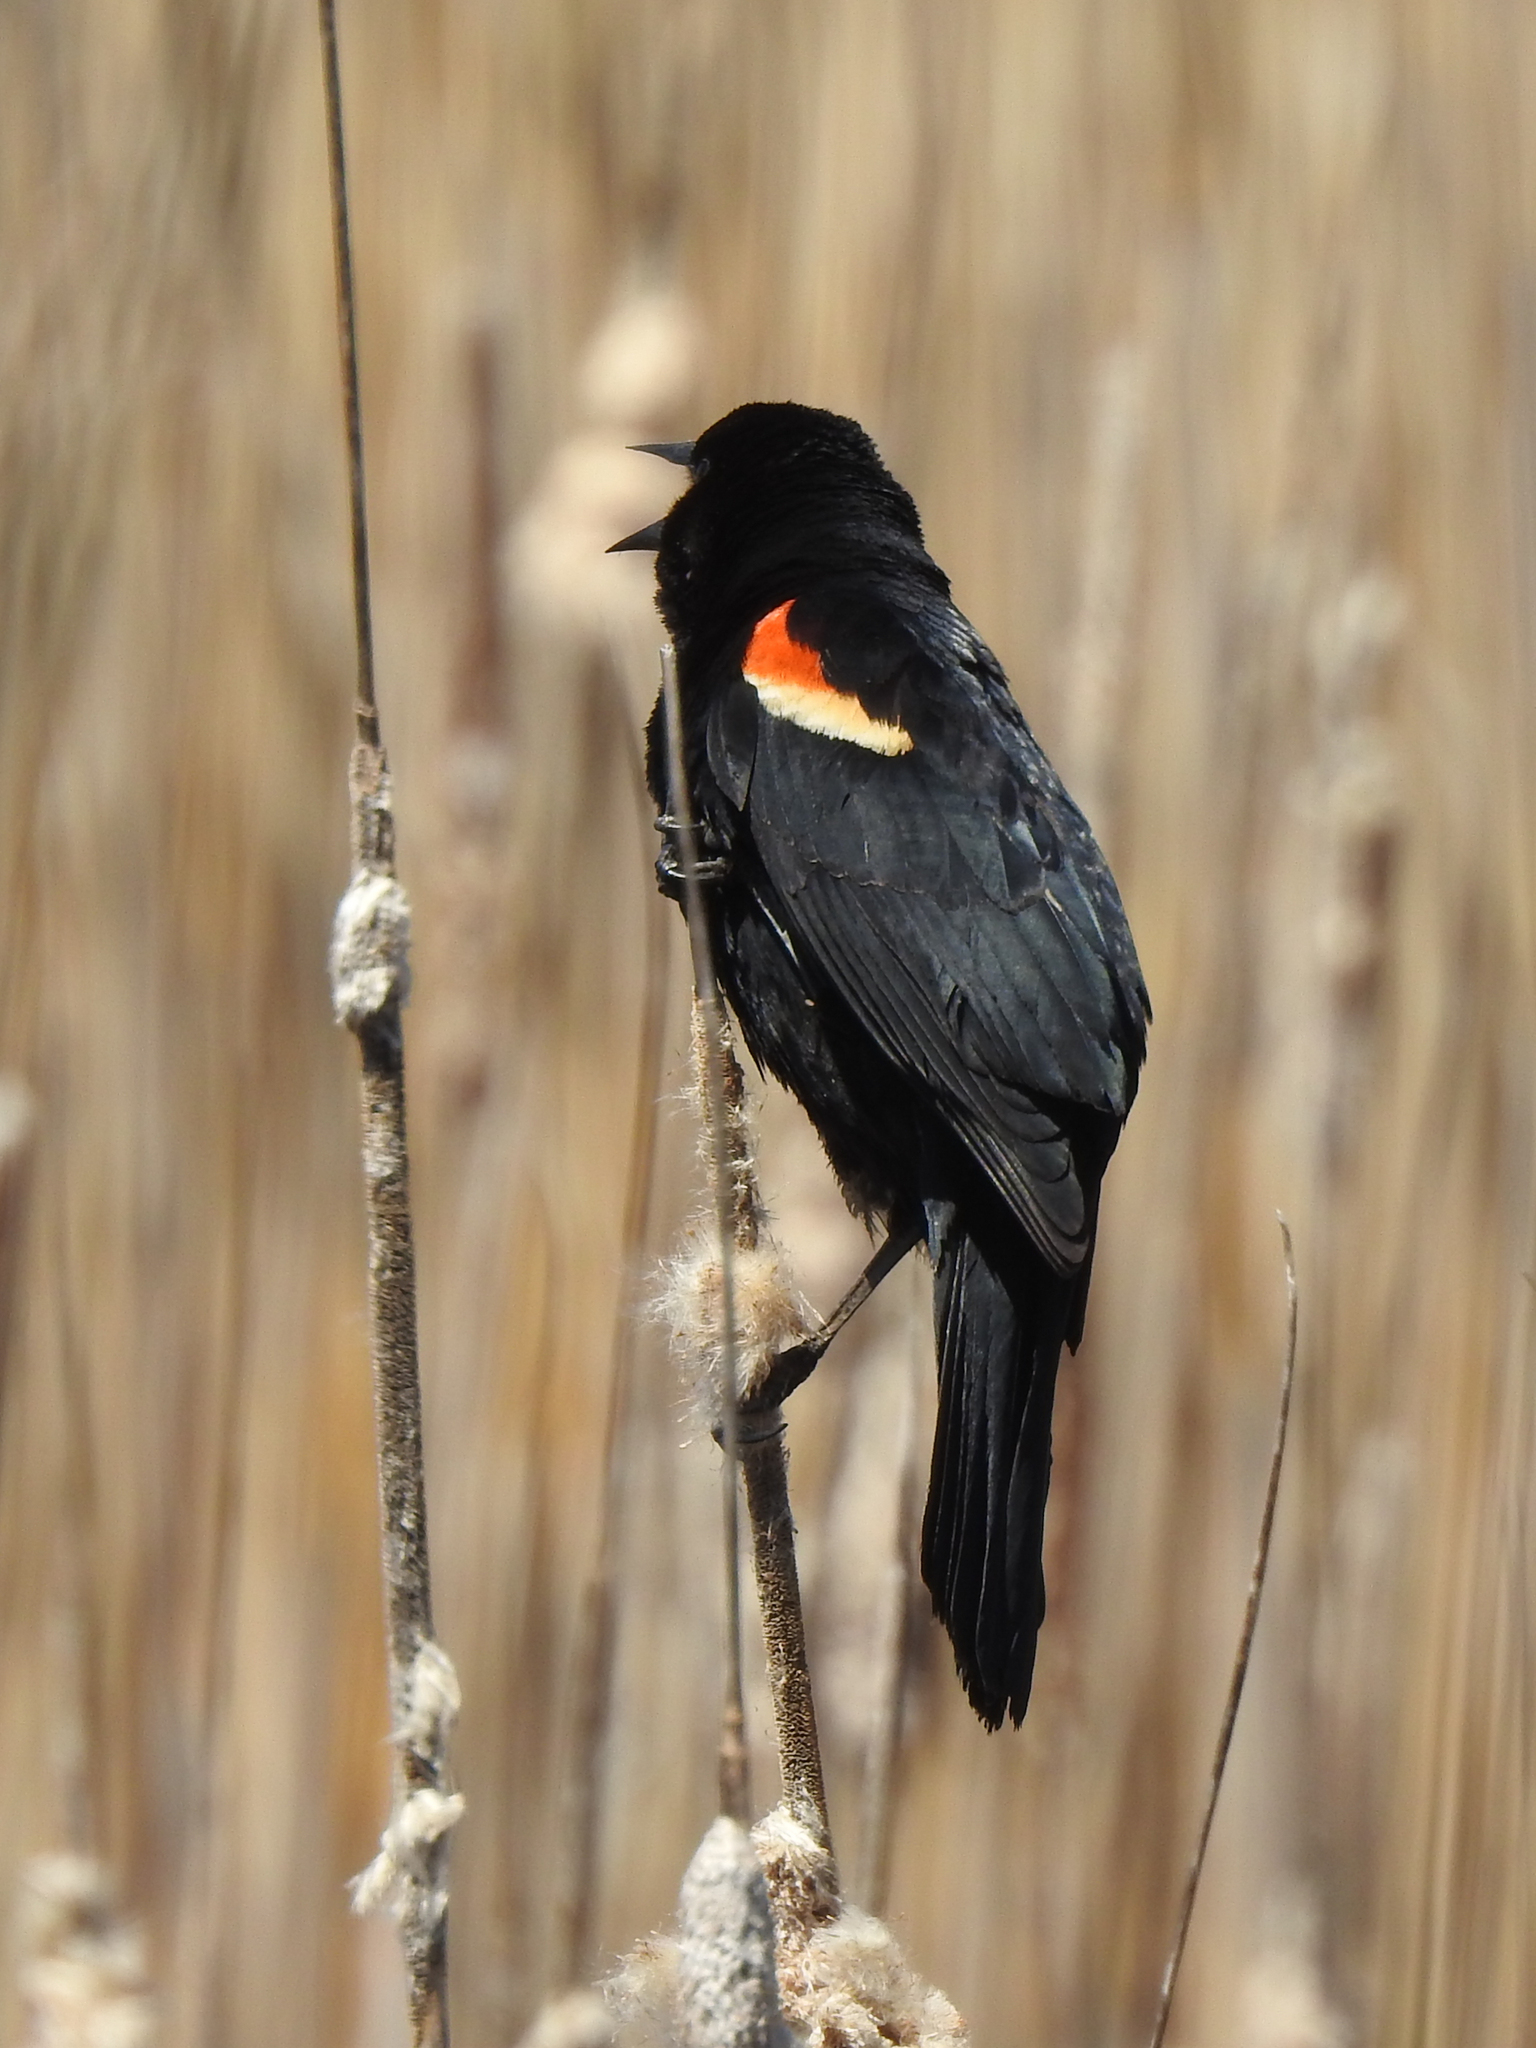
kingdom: Animalia
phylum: Chordata
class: Aves
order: Passeriformes
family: Icteridae
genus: Agelaius
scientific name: Agelaius phoeniceus
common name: Red-winged blackbird
